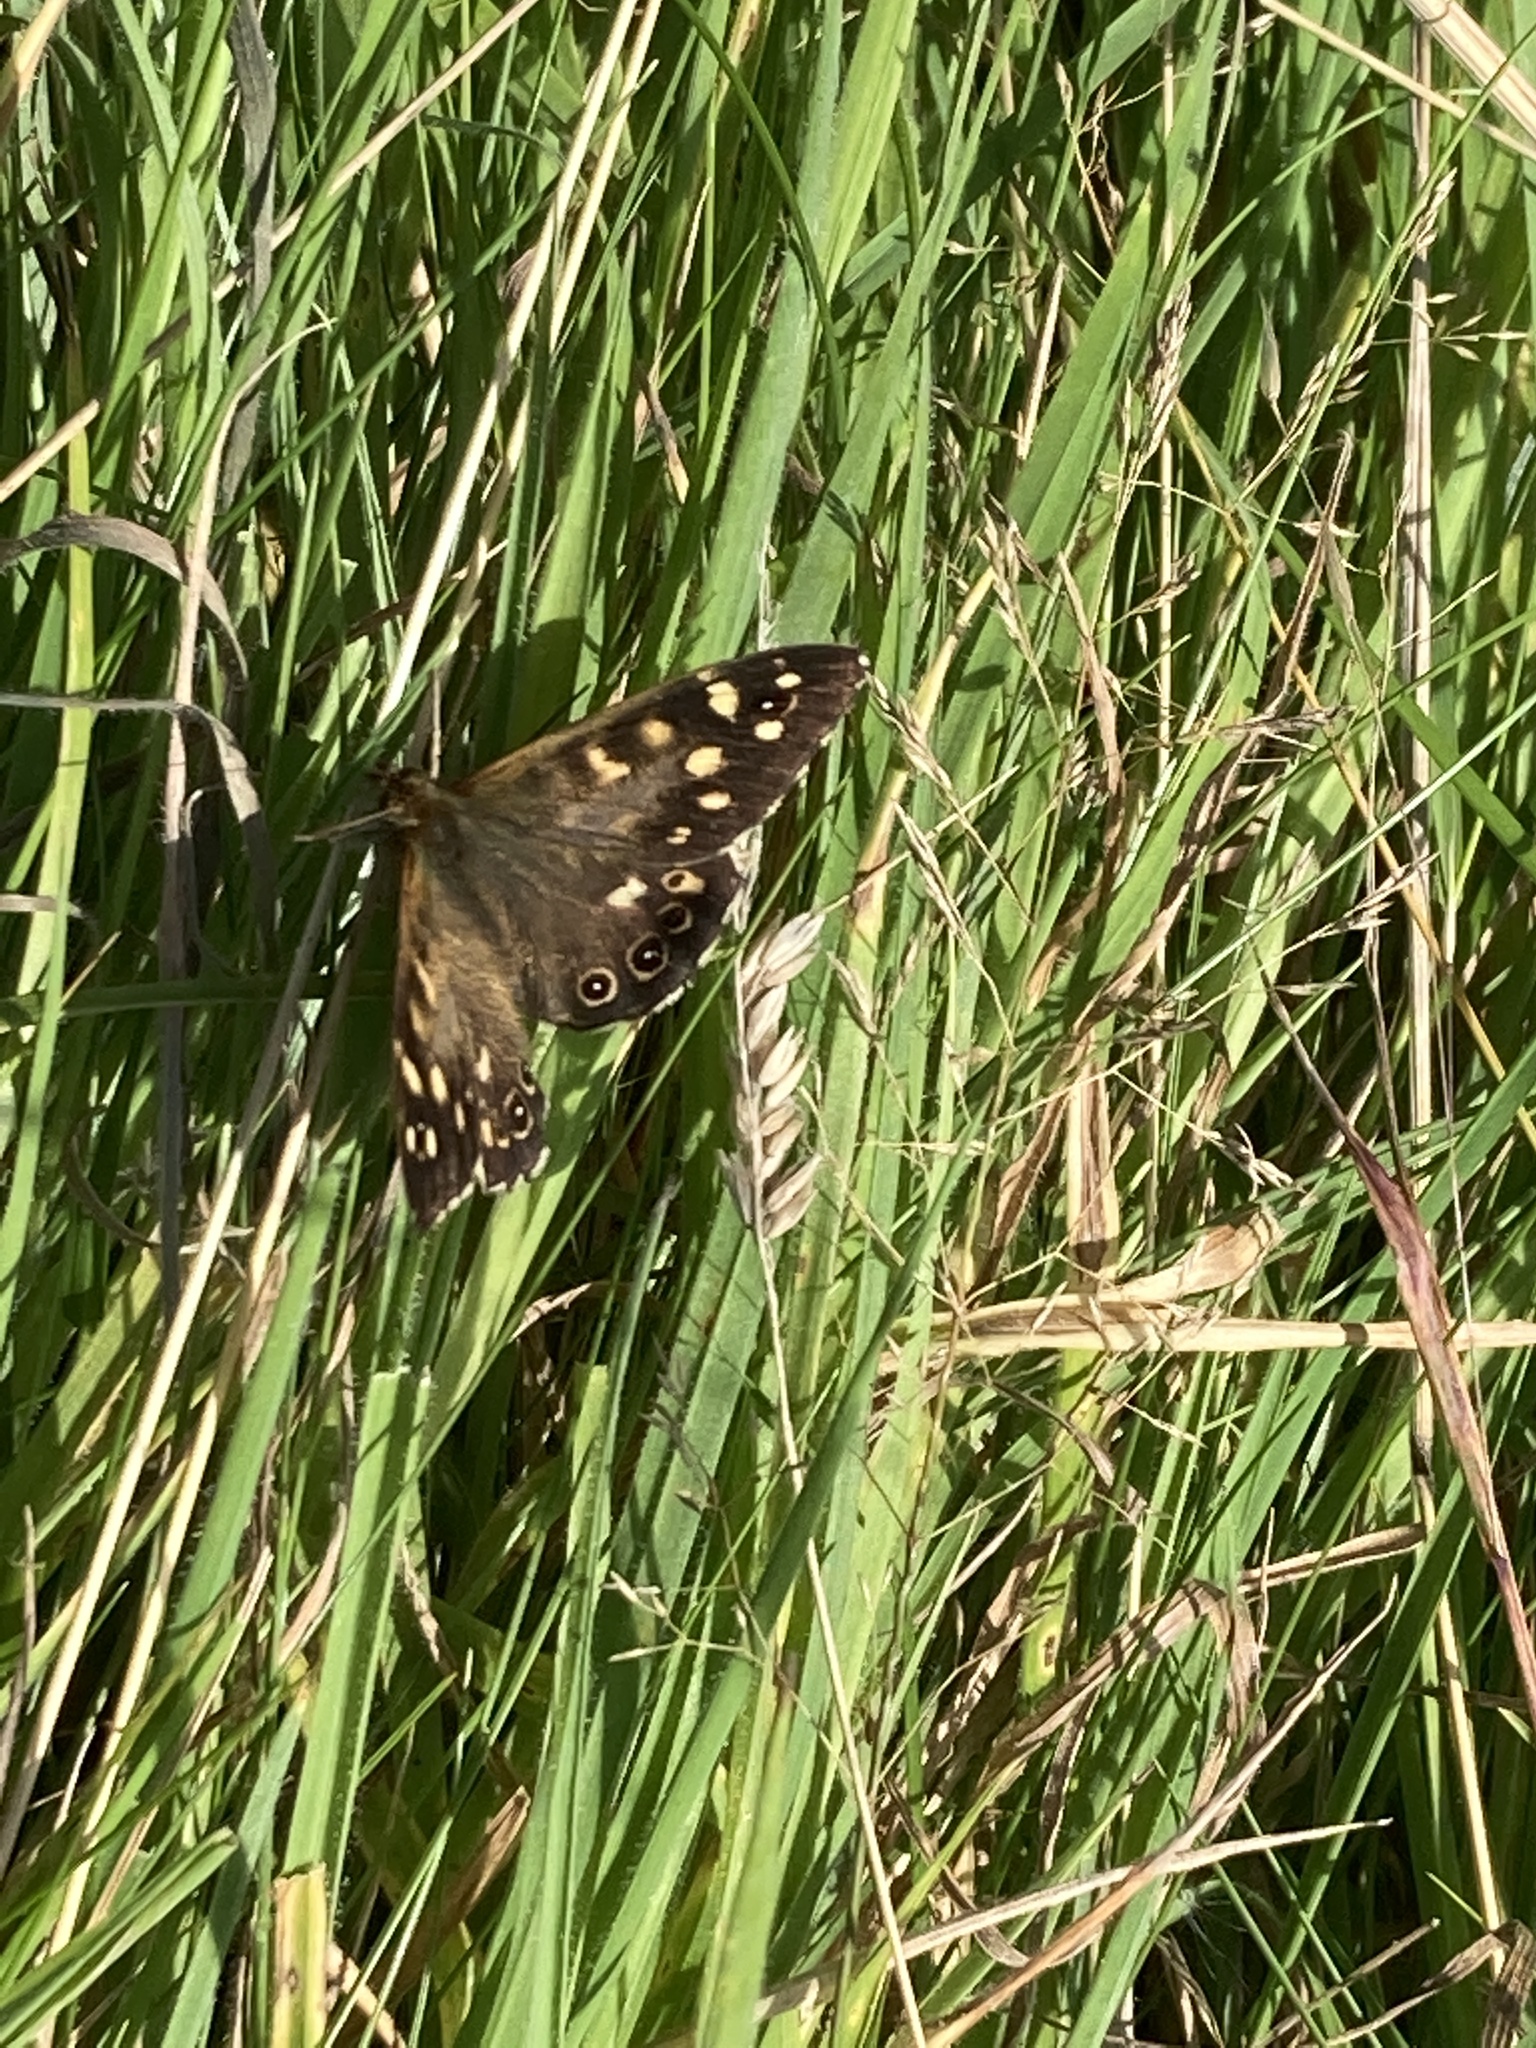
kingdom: Animalia
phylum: Arthropoda
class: Insecta
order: Lepidoptera
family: Nymphalidae
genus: Pararge
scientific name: Pararge aegeria
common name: Speckled wood
